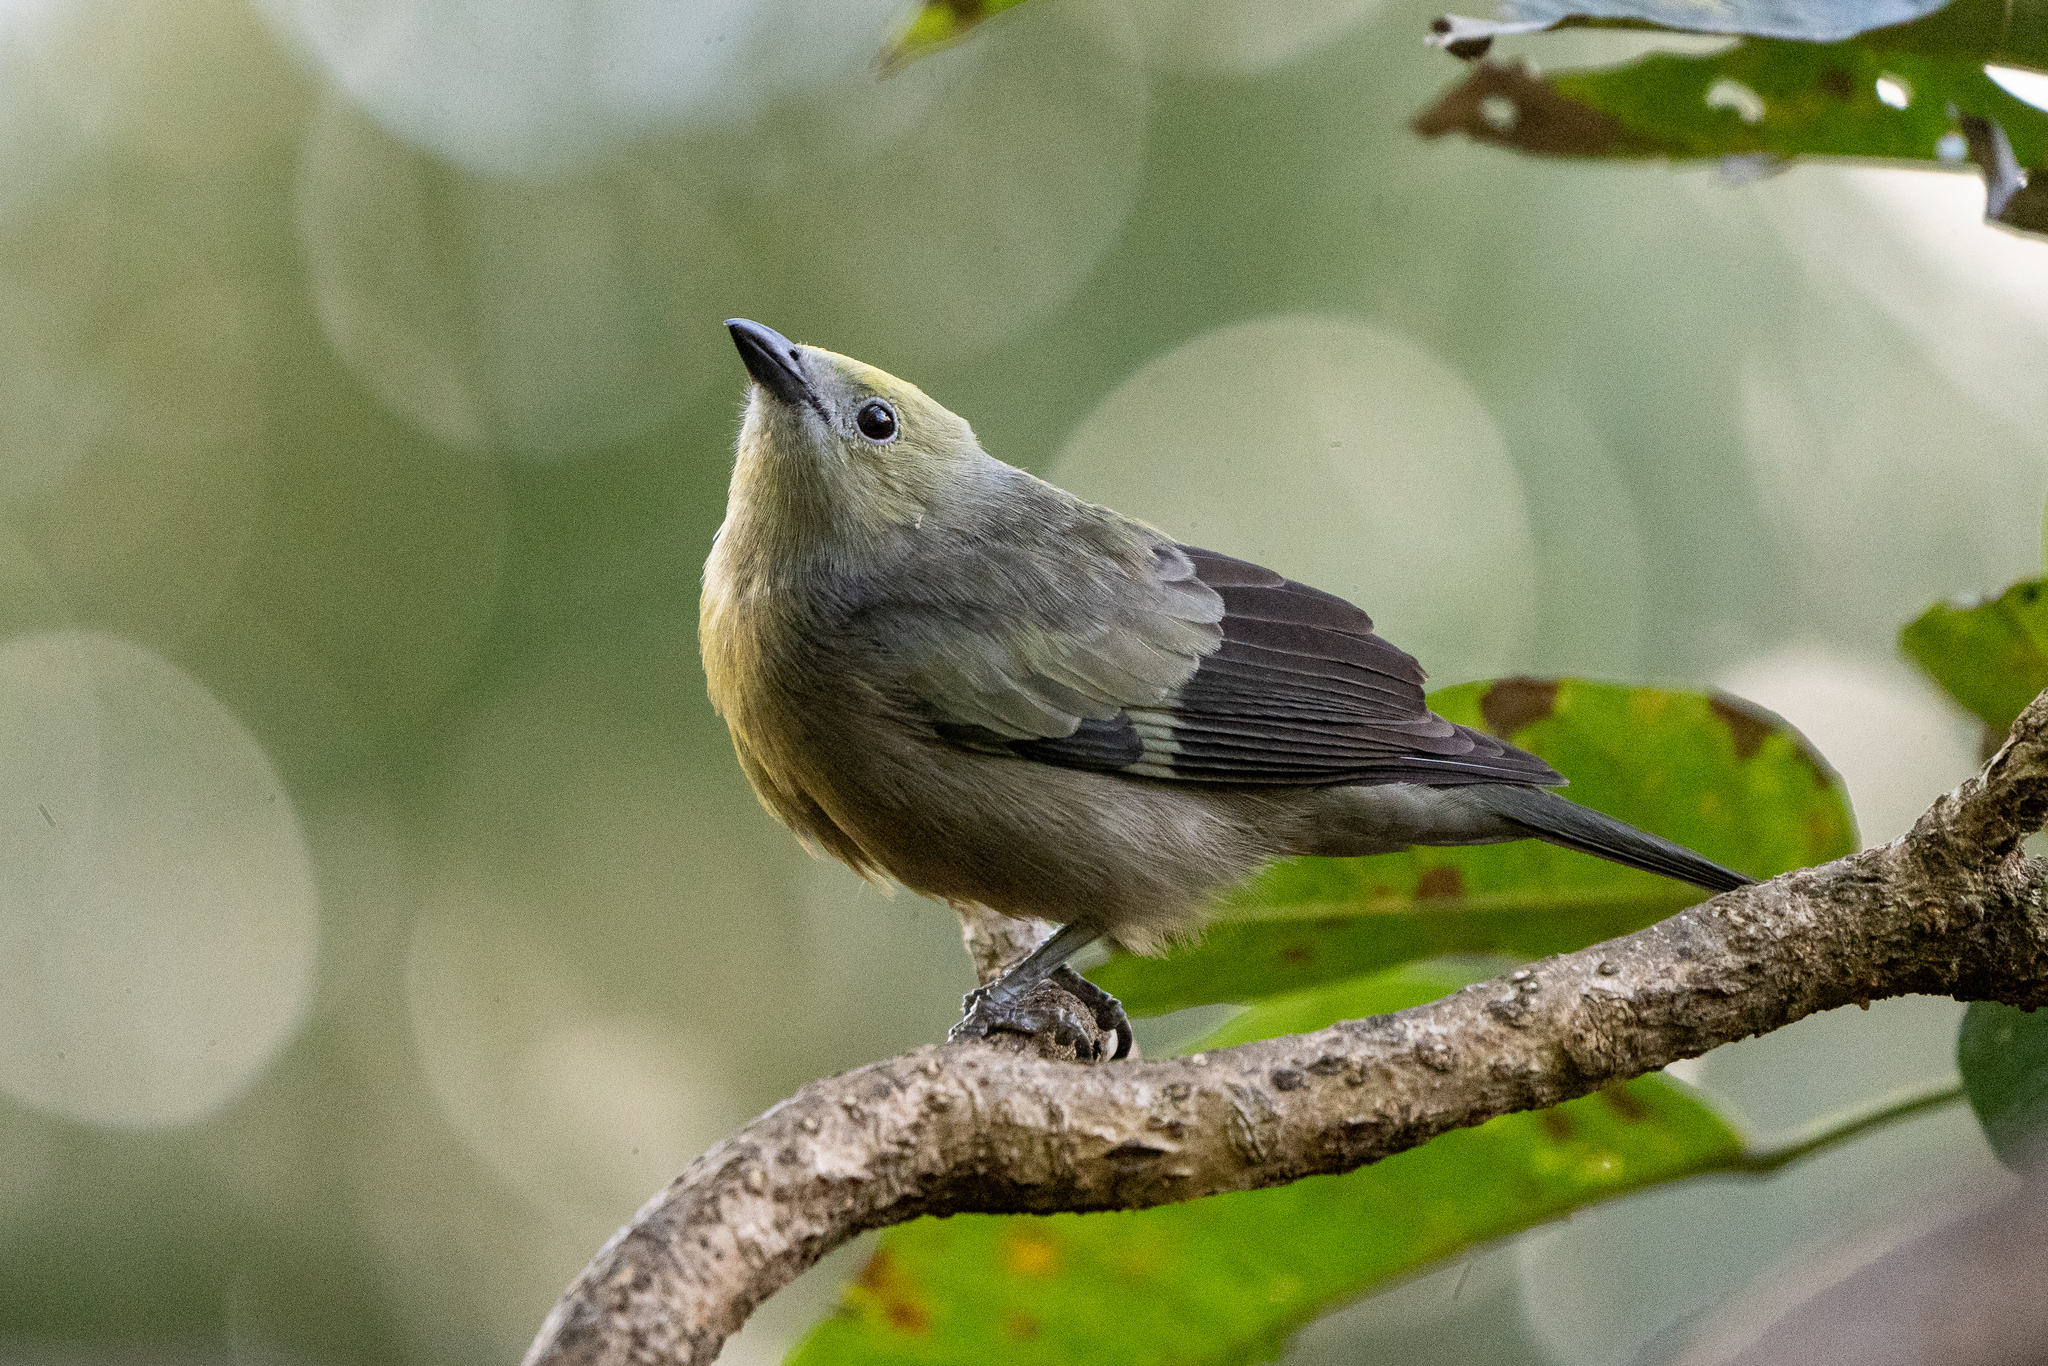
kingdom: Animalia
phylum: Chordata
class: Aves
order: Passeriformes
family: Thraupidae
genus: Thraupis
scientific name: Thraupis palmarum
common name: Palm tanager
